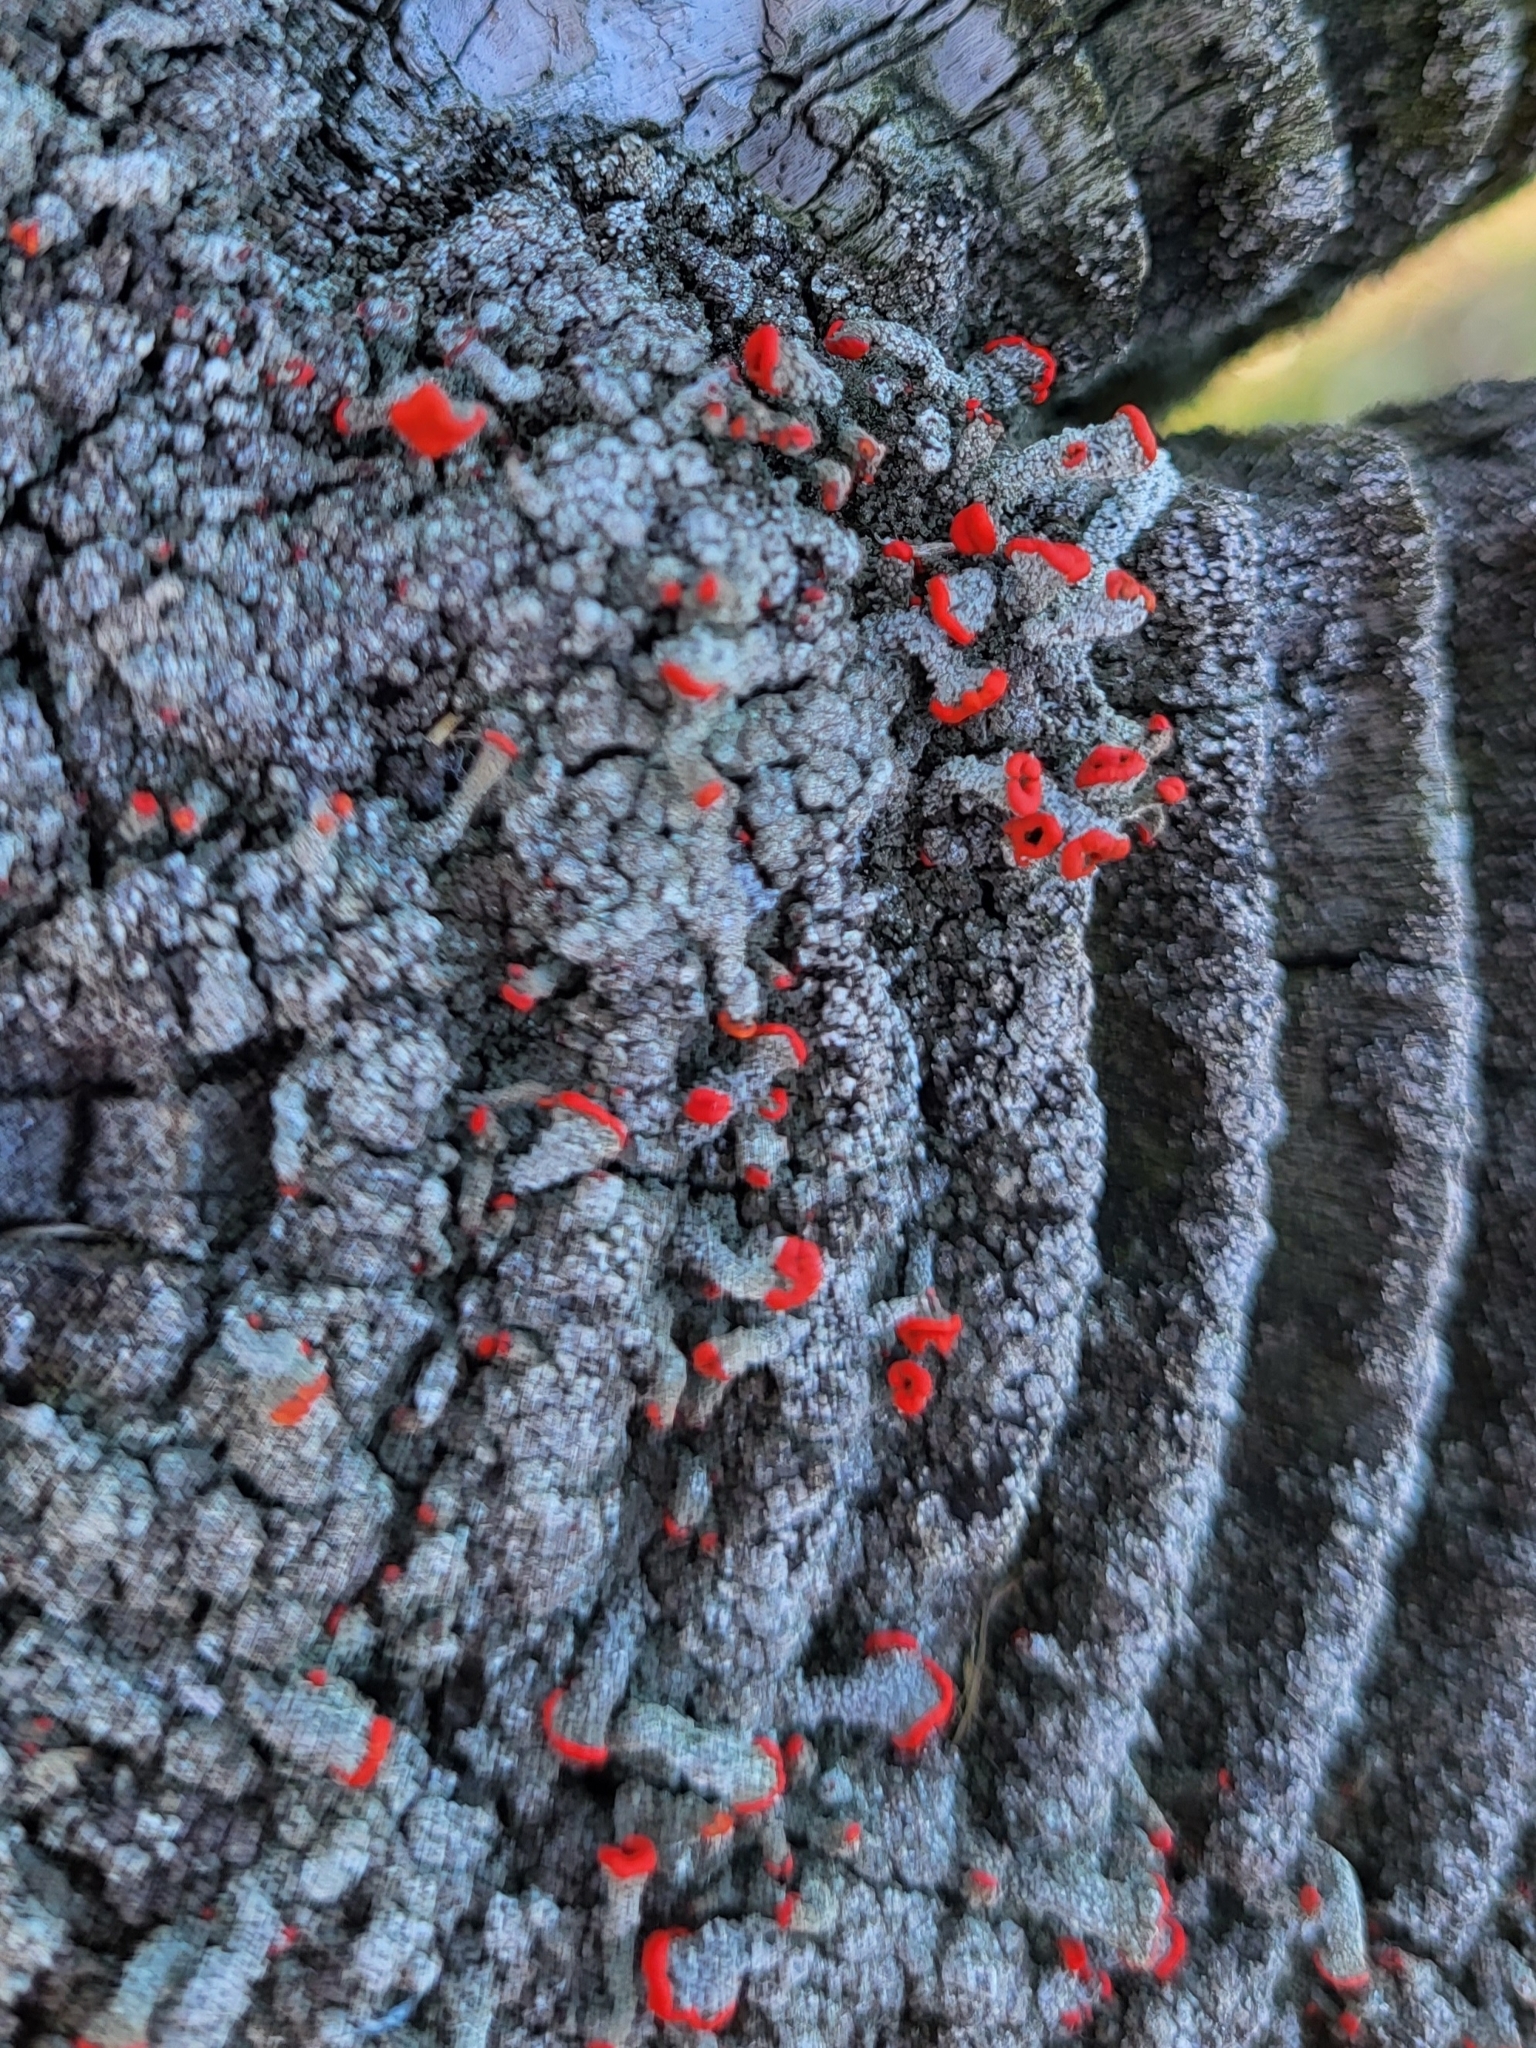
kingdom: Fungi
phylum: Ascomycota
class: Lecanoromycetes
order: Lecanorales
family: Cladoniaceae
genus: Cladonia
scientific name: Cladonia cristatella
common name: British soldier lichen
